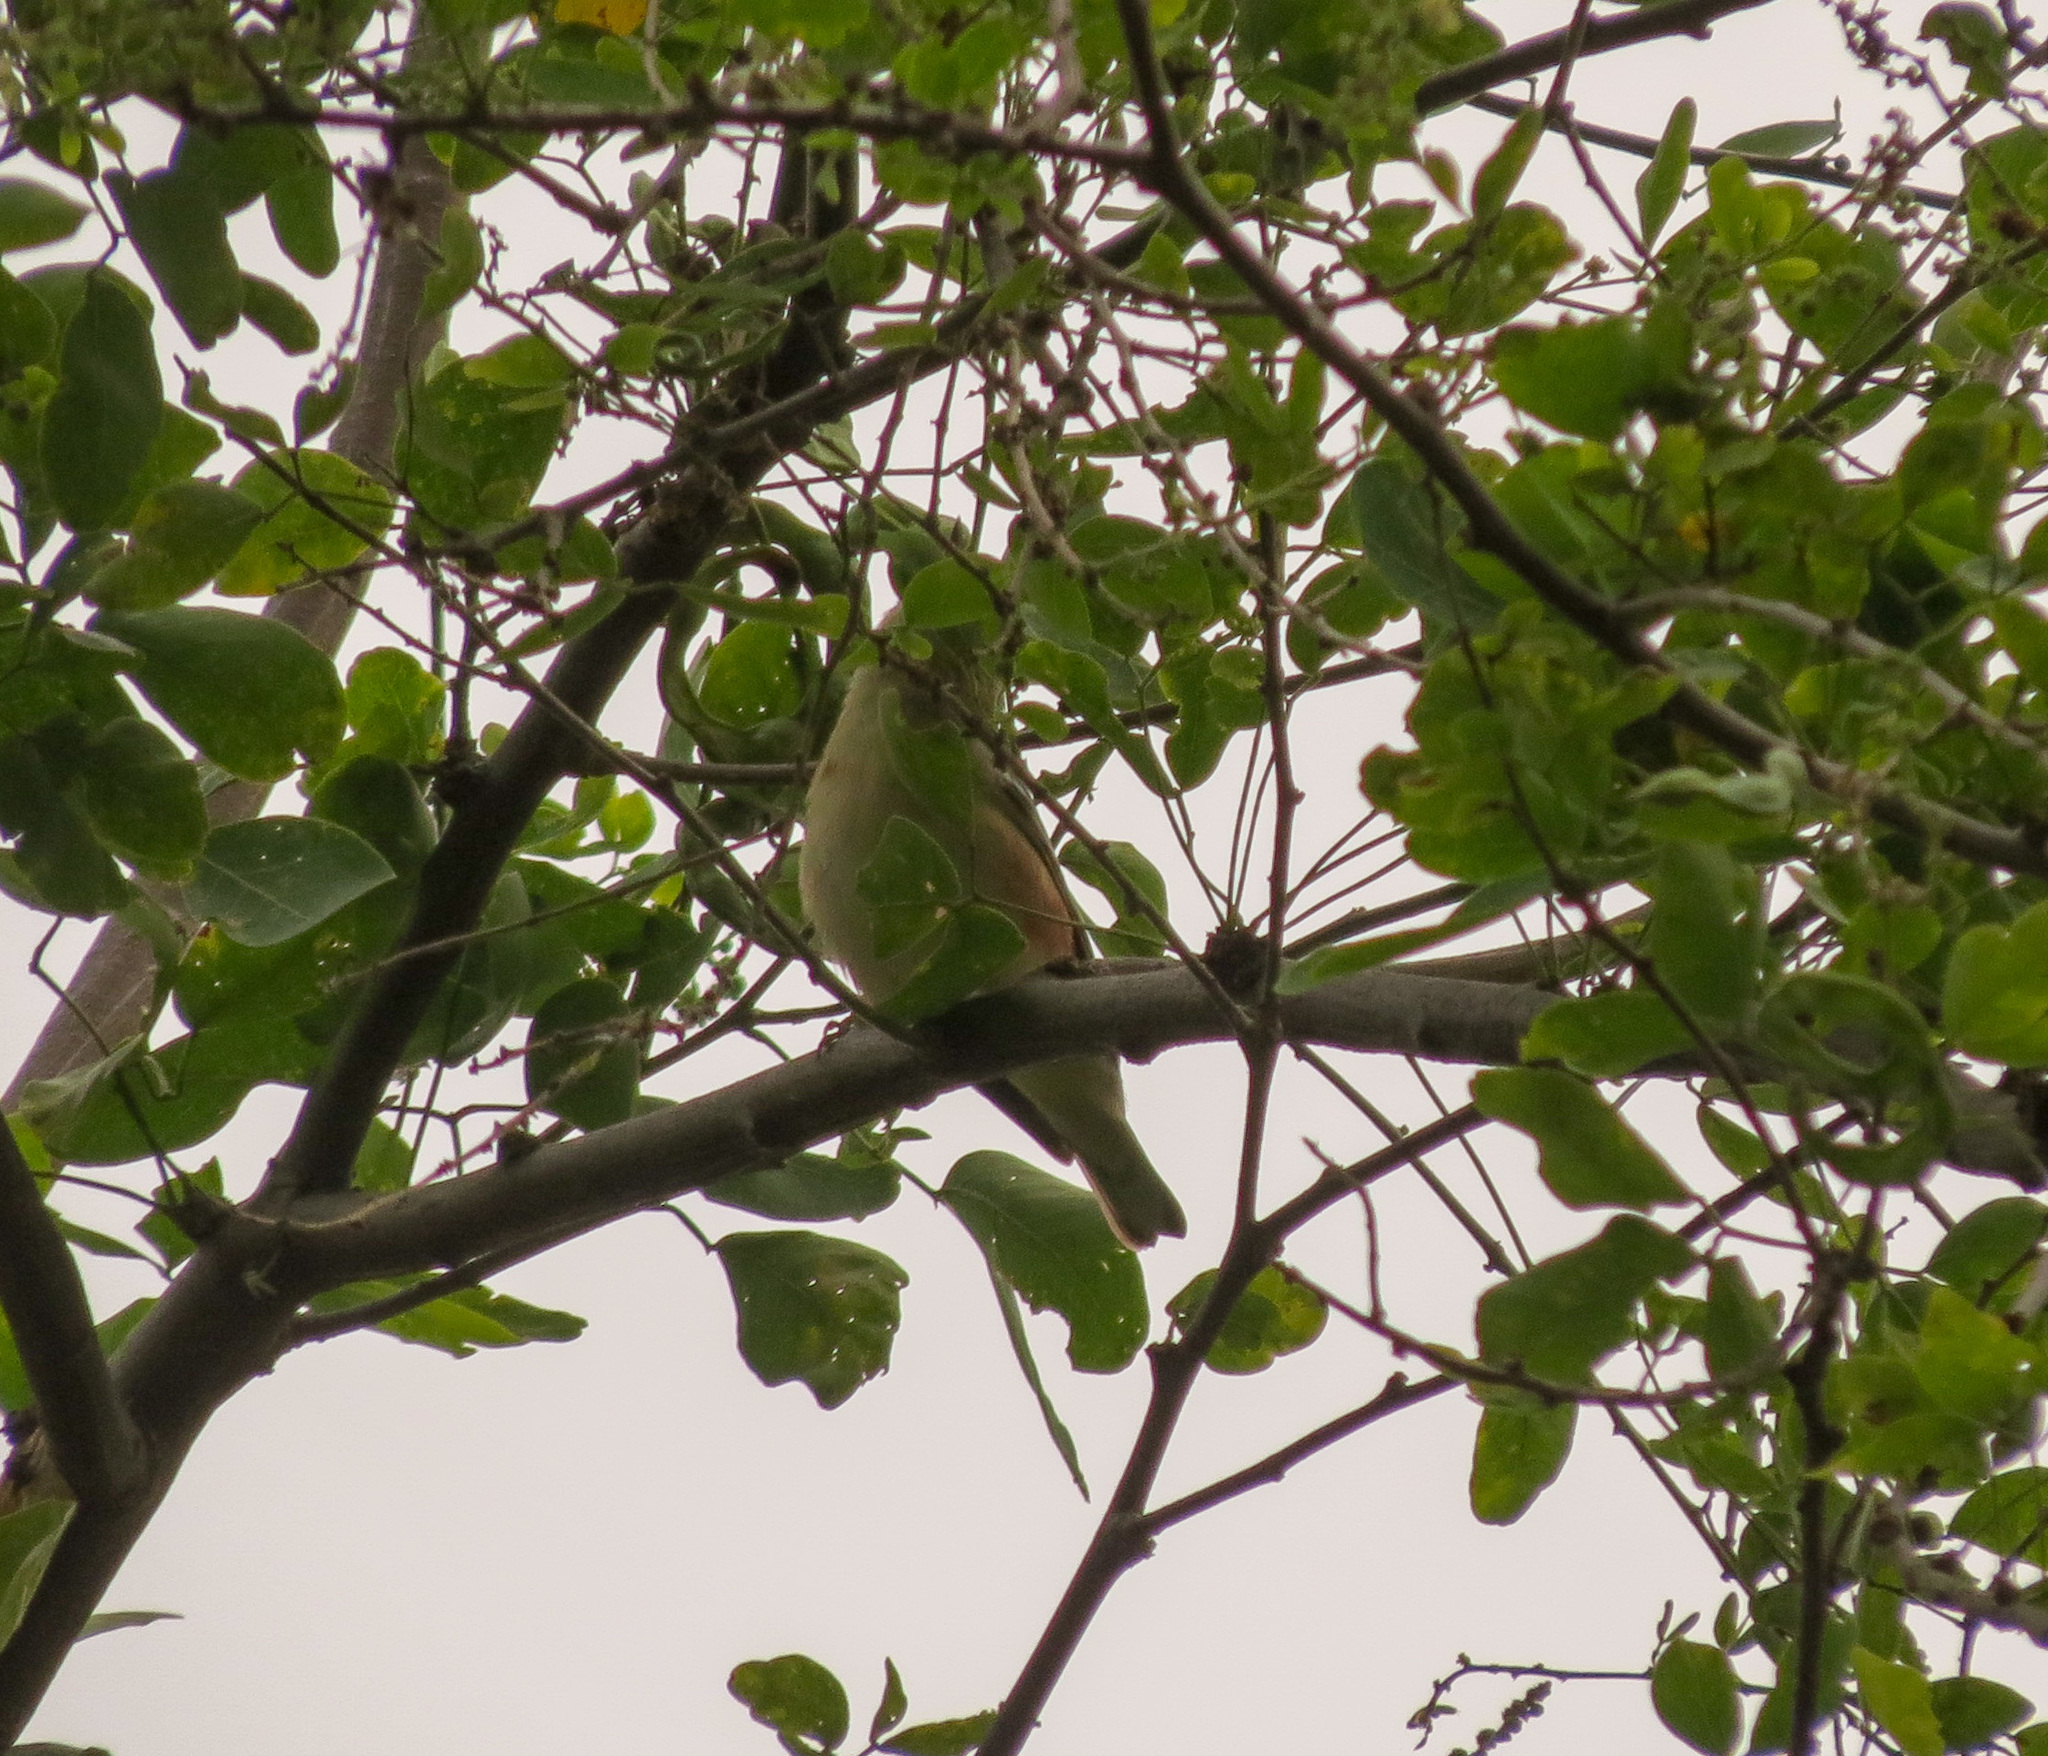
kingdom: Animalia
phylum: Chordata
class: Aves
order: Passeriformes
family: Parulidae
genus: Setophaga
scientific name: Setophaga castanea
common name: Bay-breasted warbler
